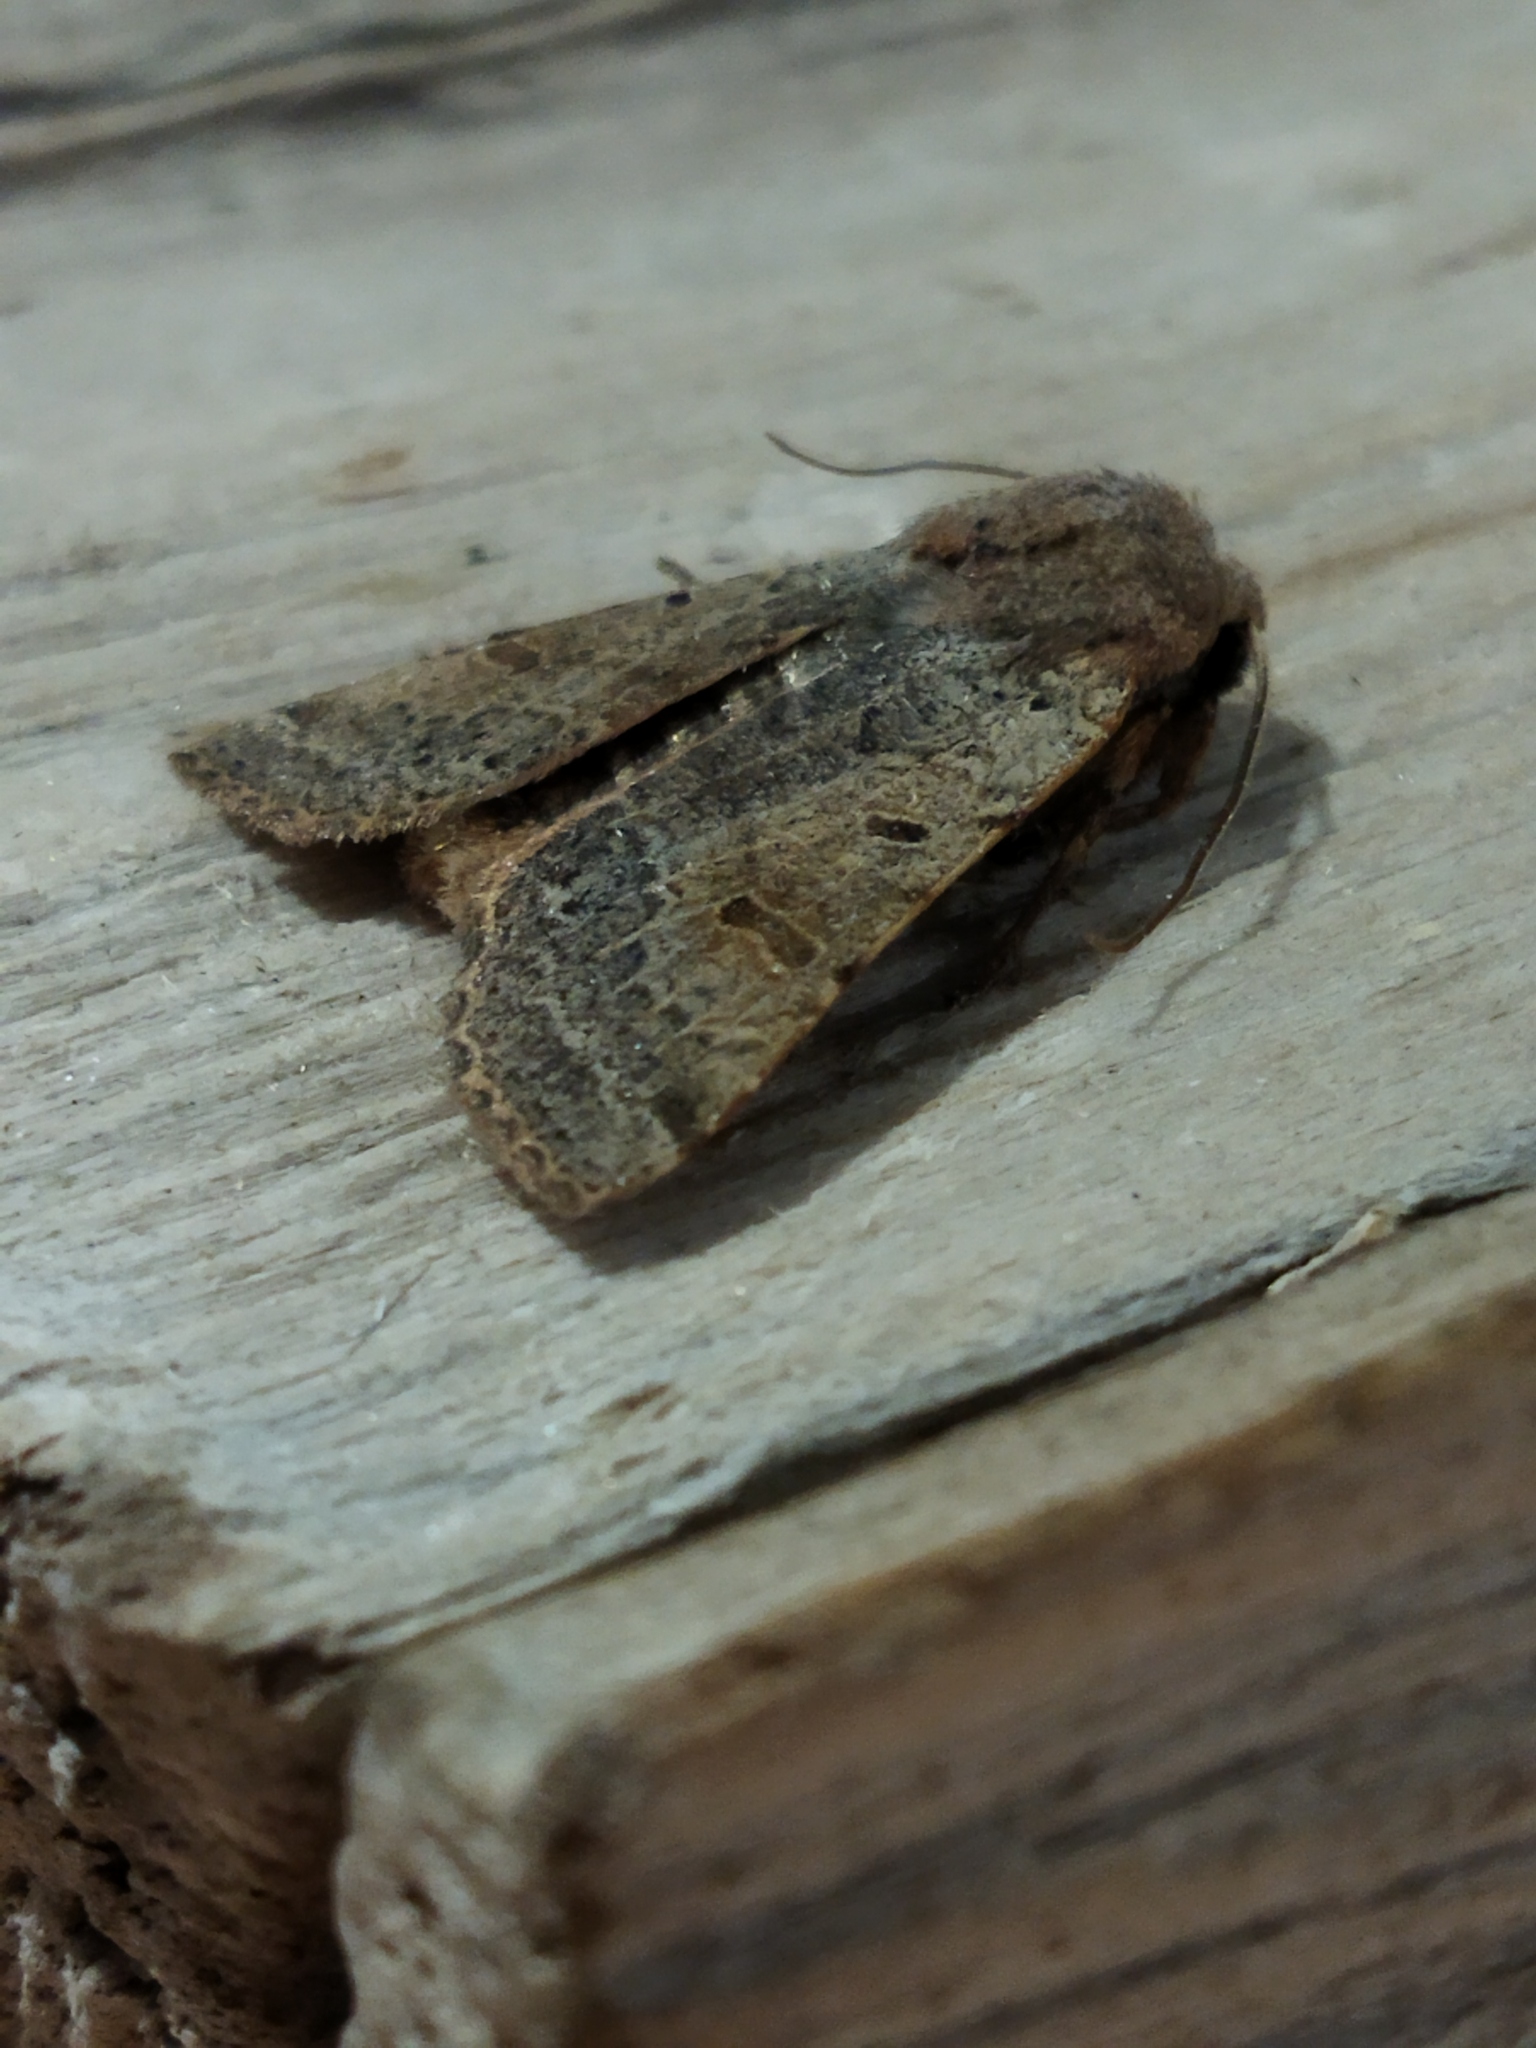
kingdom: Animalia
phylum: Arthropoda
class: Insecta
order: Lepidoptera
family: Noctuidae
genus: Agrochola
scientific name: Agrochola lychnidis
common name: Beaded chestnut
